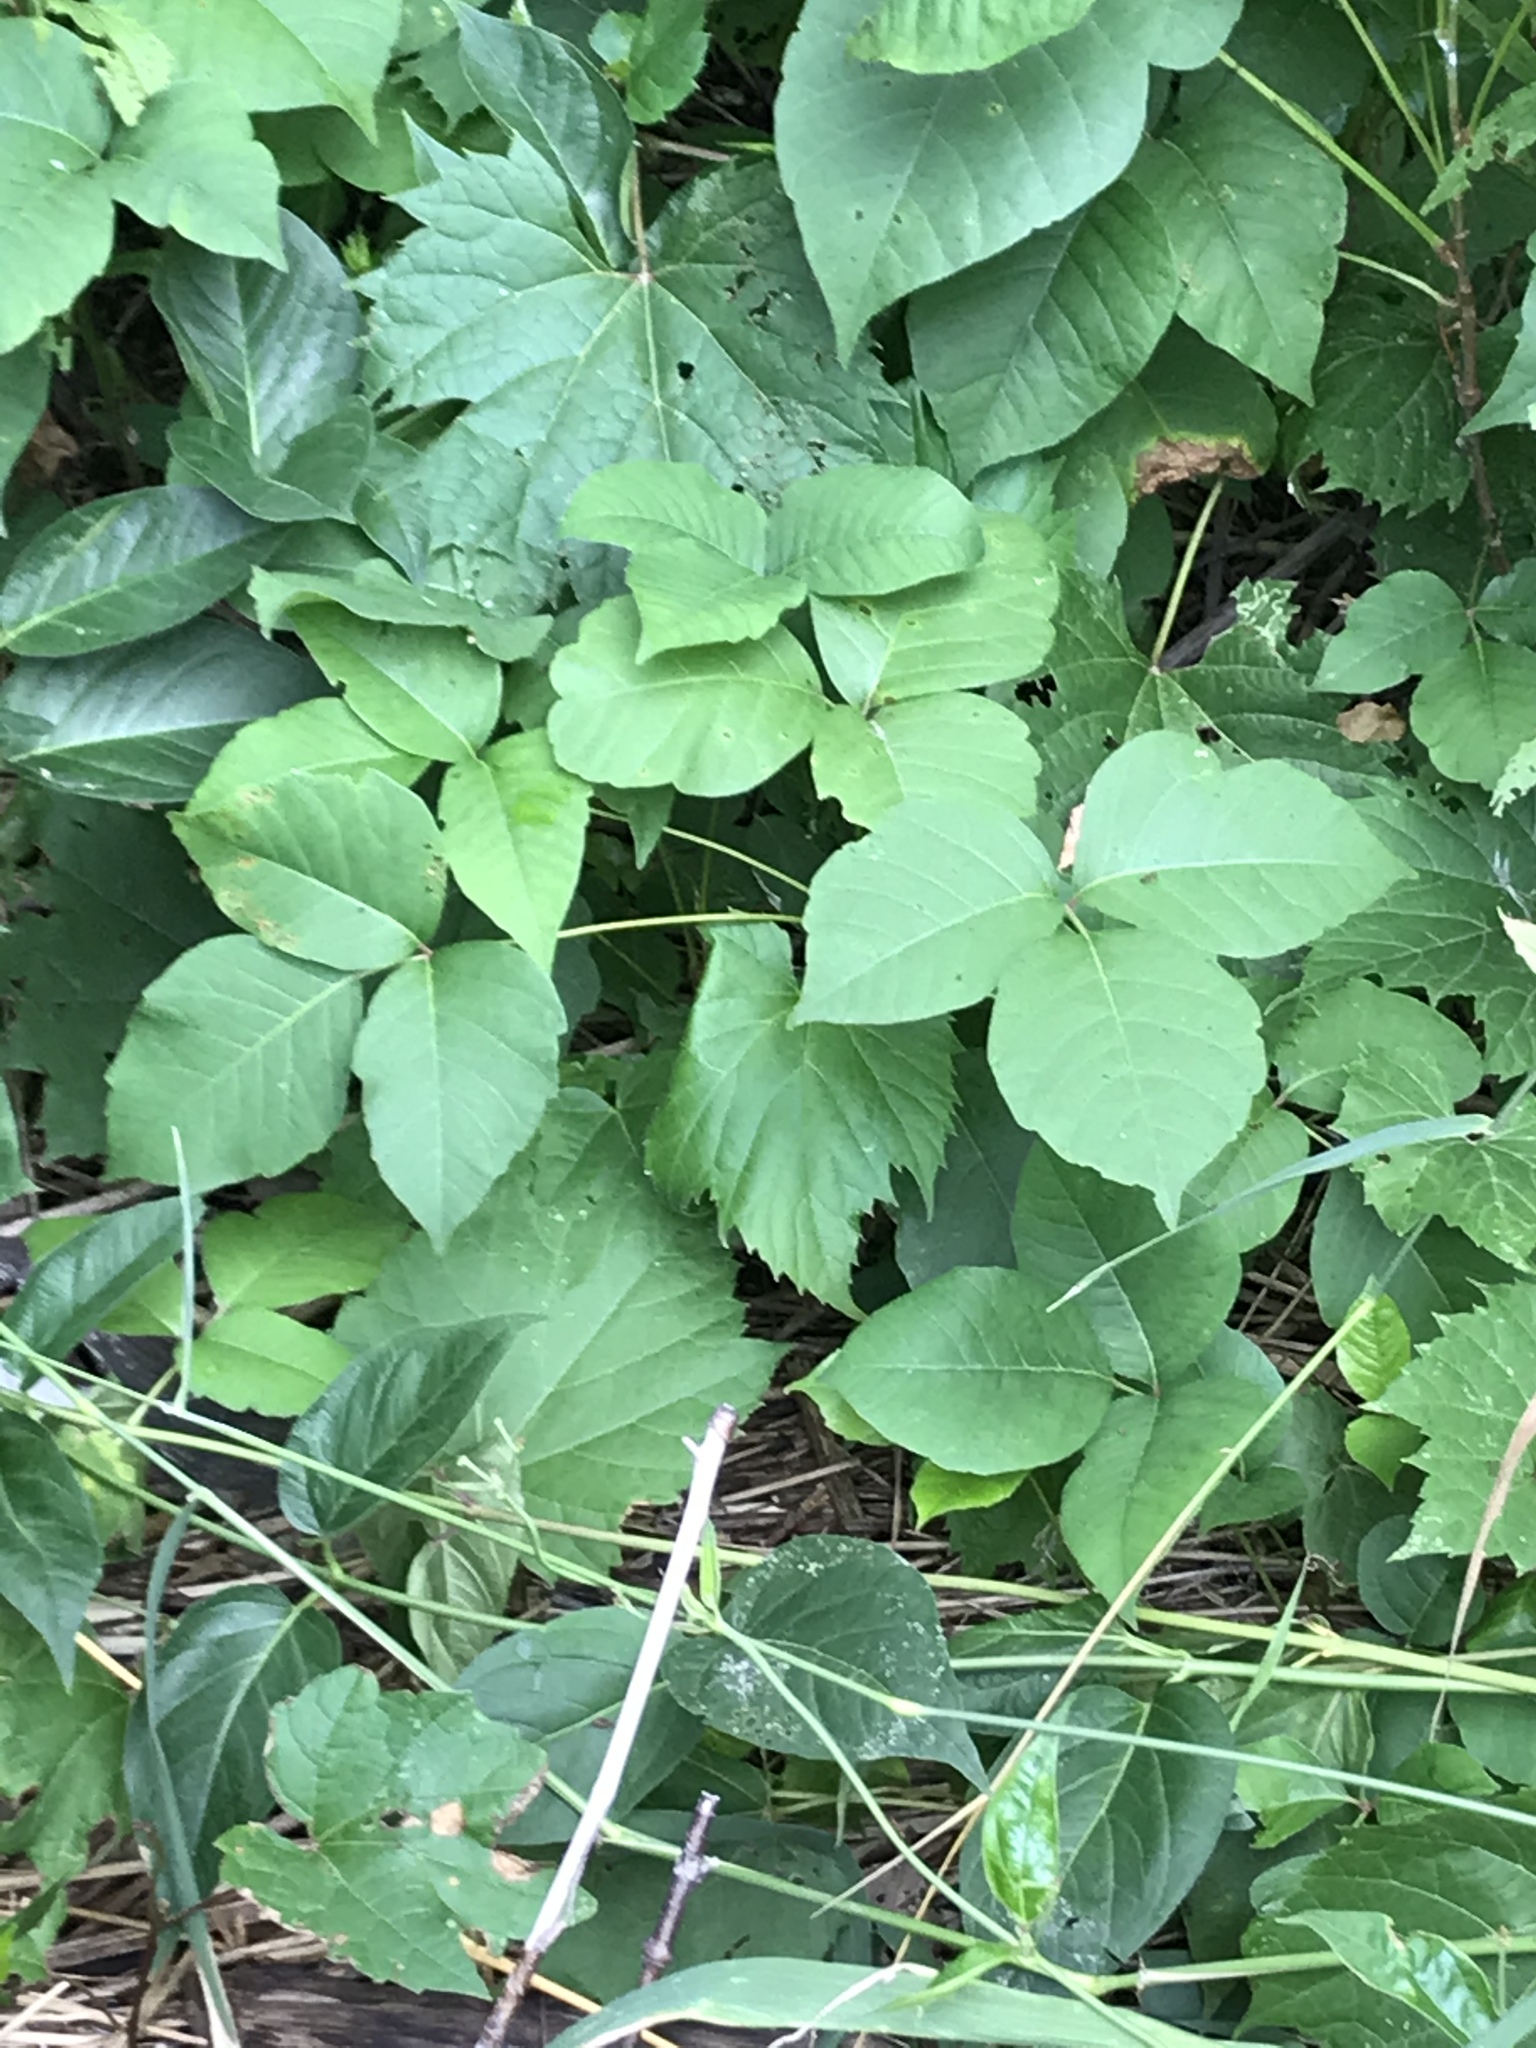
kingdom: Plantae
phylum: Tracheophyta
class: Magnoliopsida
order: Sapindales
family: Anacardiaceae
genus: Toxicodendron
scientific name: Toxicodendron radicans
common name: Poison ivy
